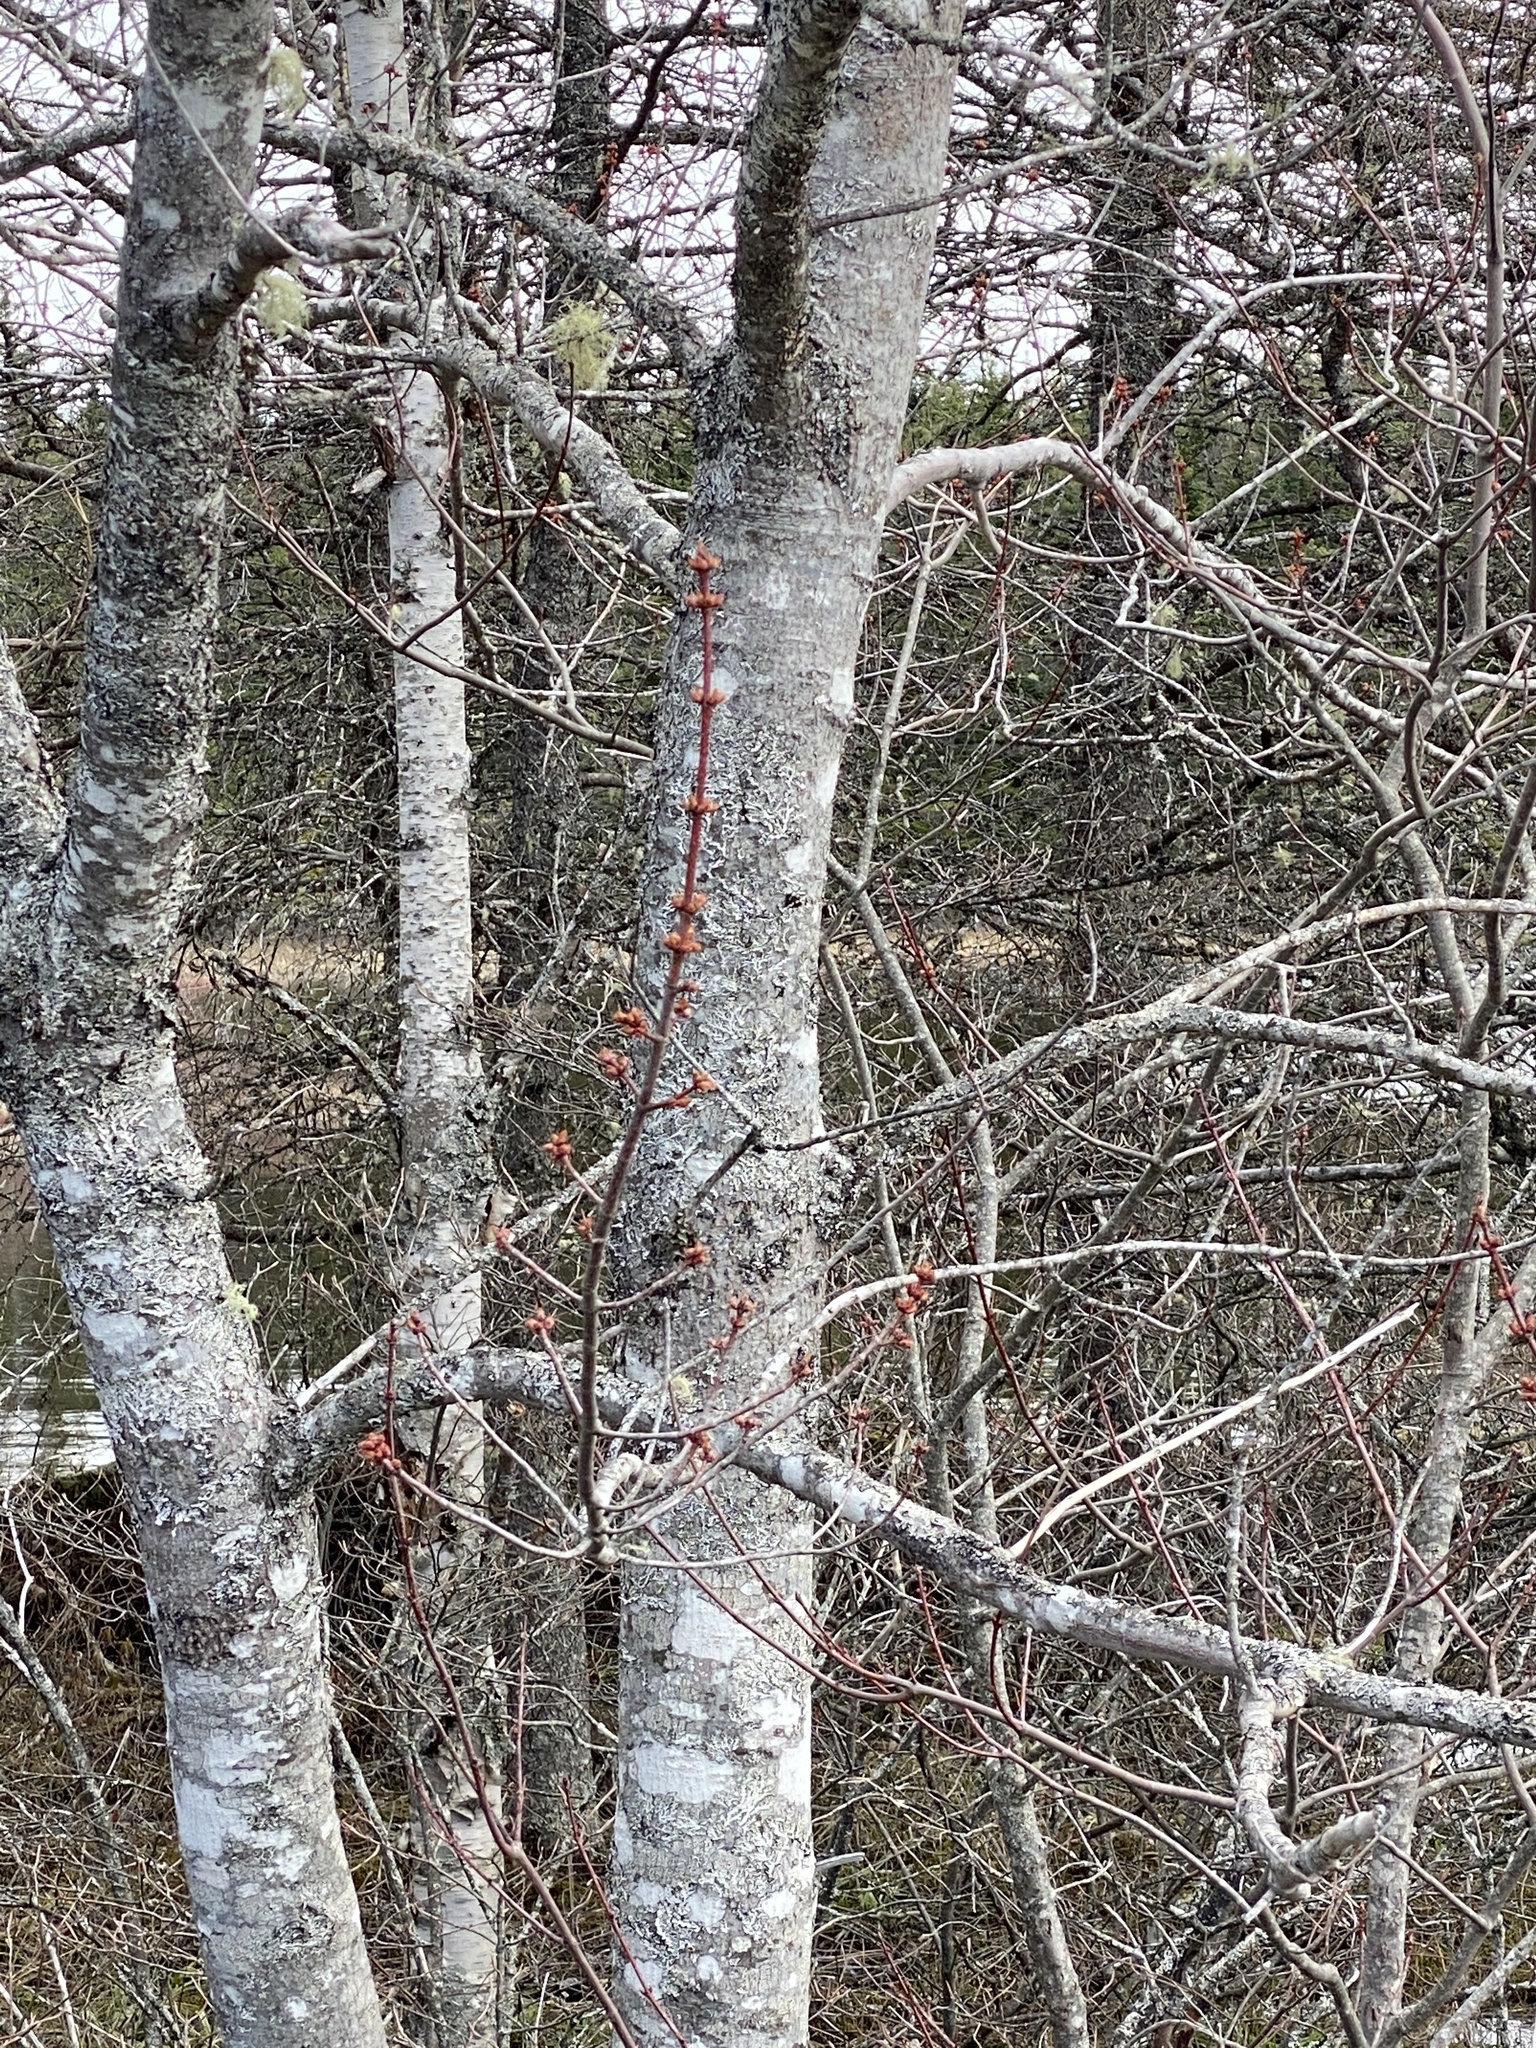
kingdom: Plantae
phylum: Tracheophyta
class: Magnoliopsida
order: Sapindales
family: Sapindaceae
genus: Acer
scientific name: Acer rubrum
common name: Red maple
